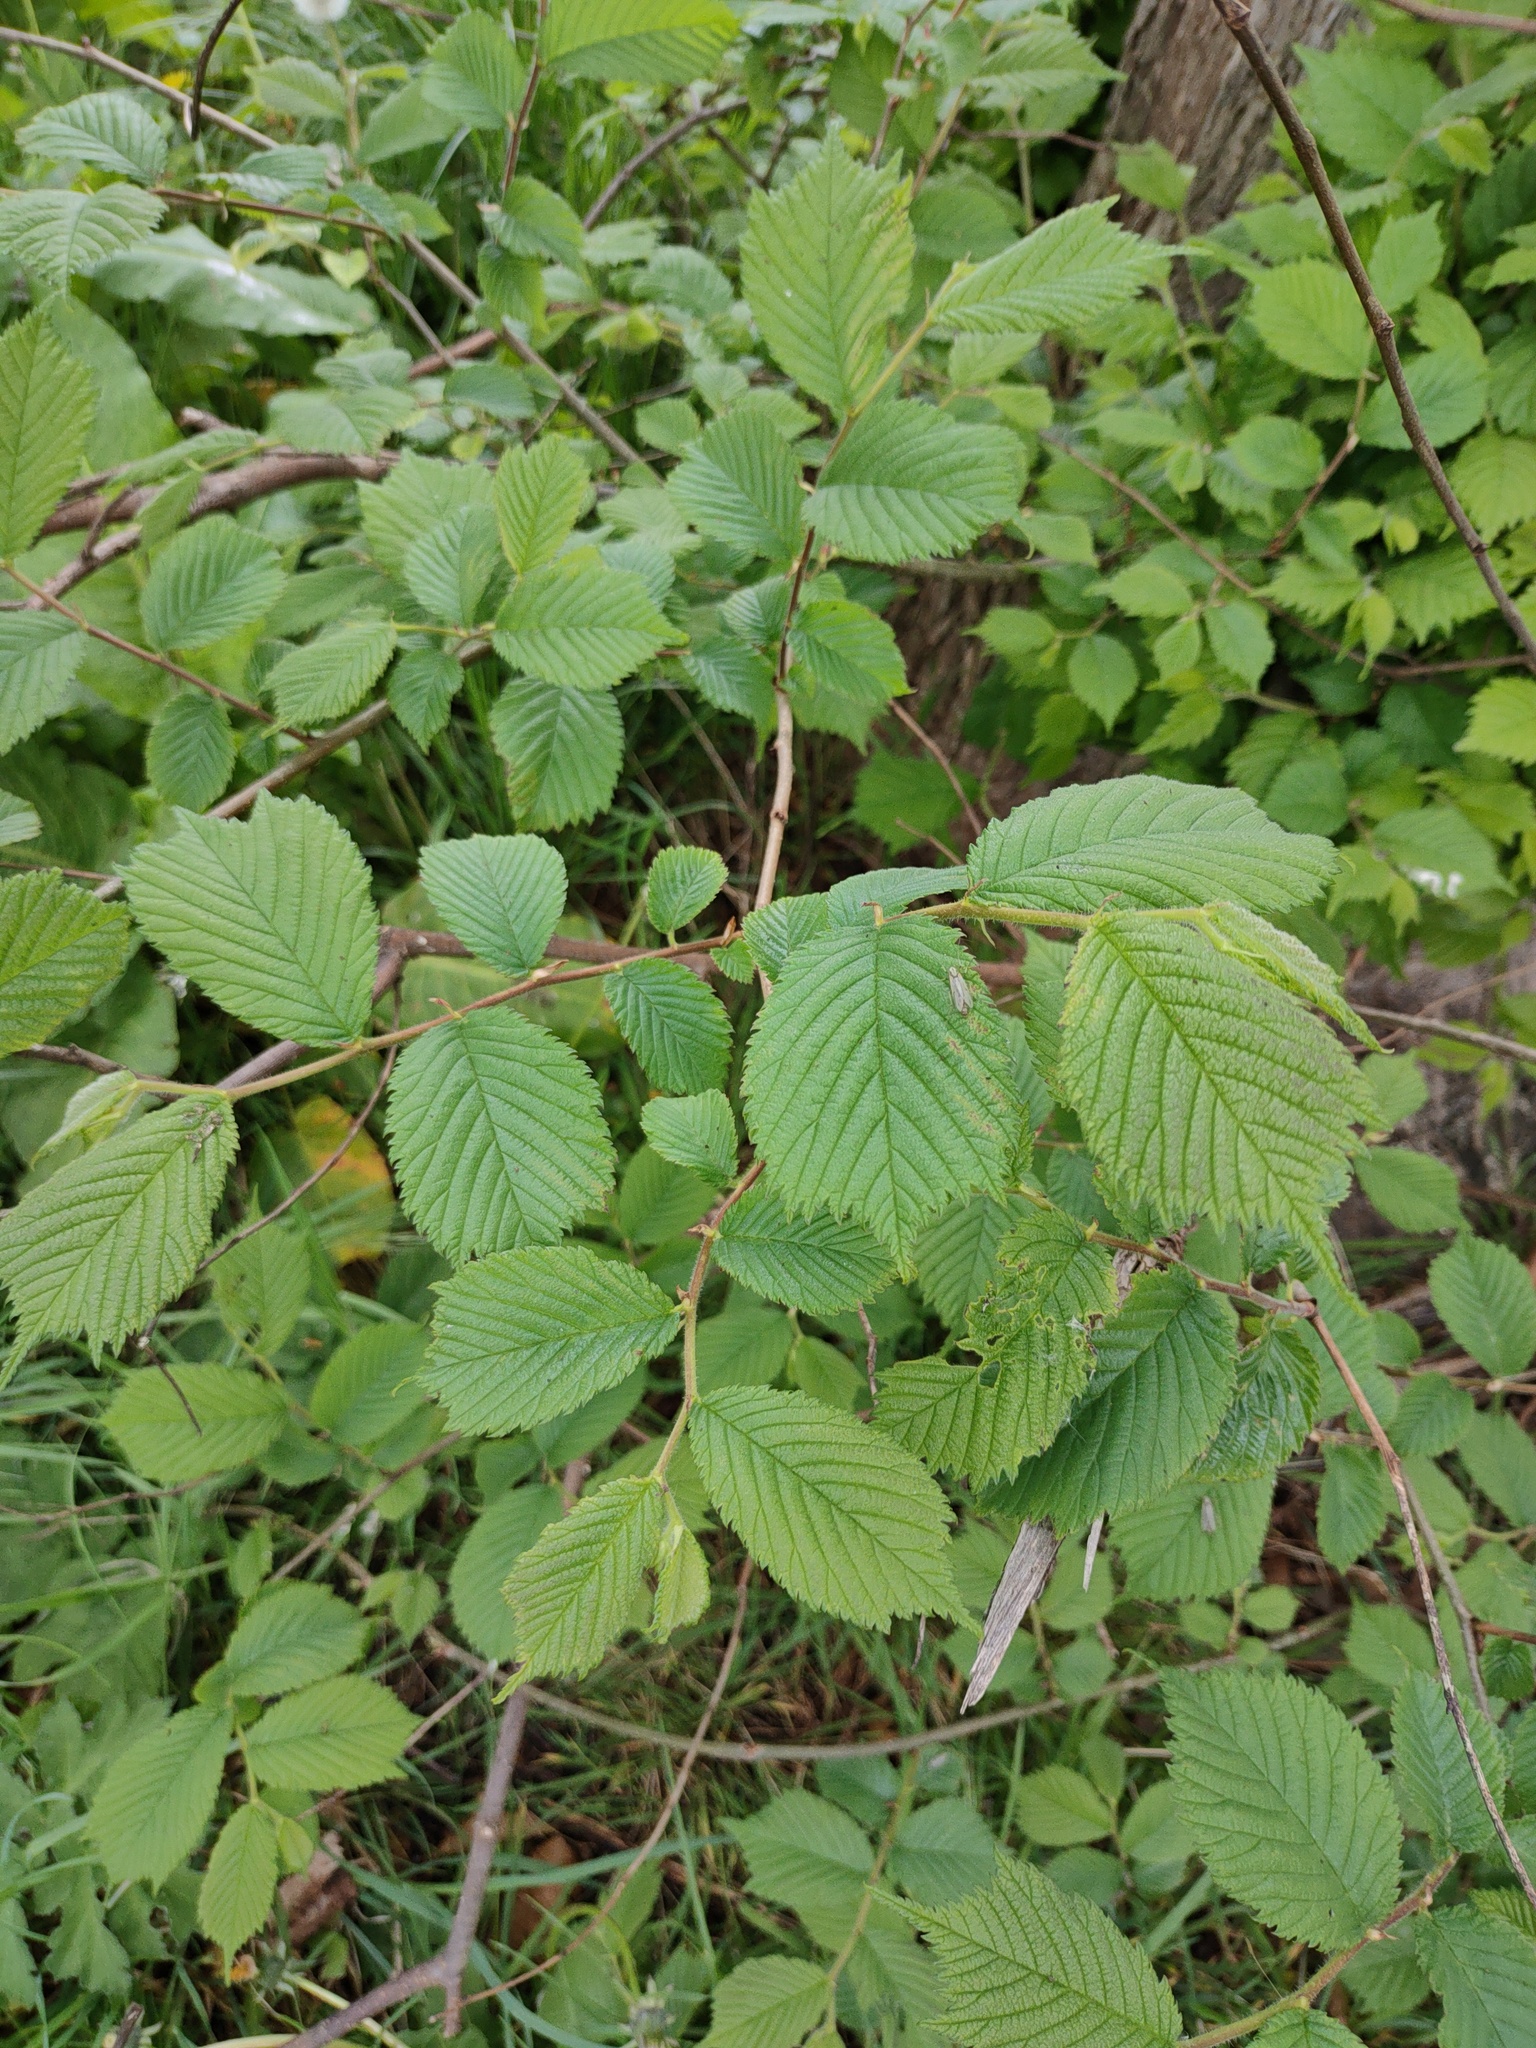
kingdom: Plantae
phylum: Tracheophyta
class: Magnoliopsida
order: Rosales
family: Ulmaceae
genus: Ulmus
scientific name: Ulmus glabra
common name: Wych elm
